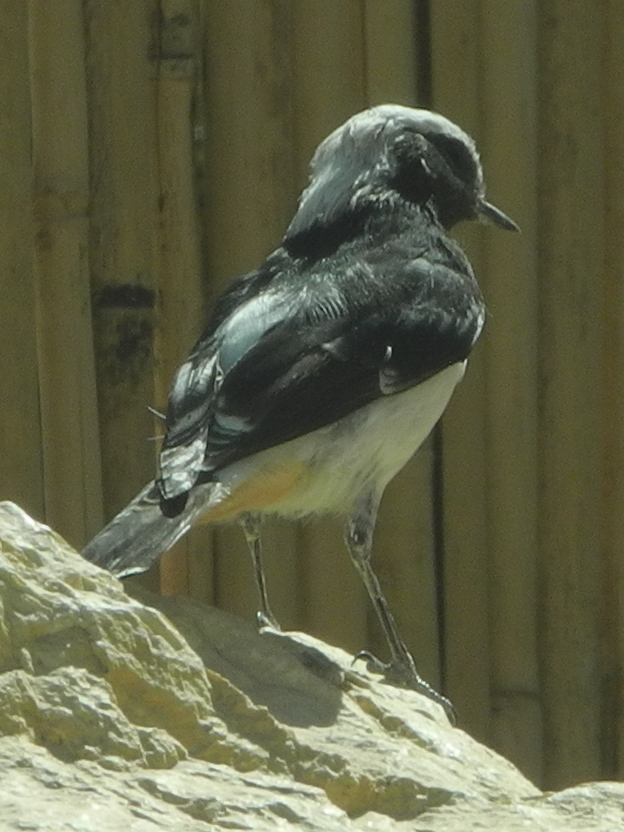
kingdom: Animalia
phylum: Chordata
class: Aves
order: Passeriformes
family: Muscicapidae
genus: Oenanthe
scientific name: Oenanthe lugens
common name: Mourning wheatear
